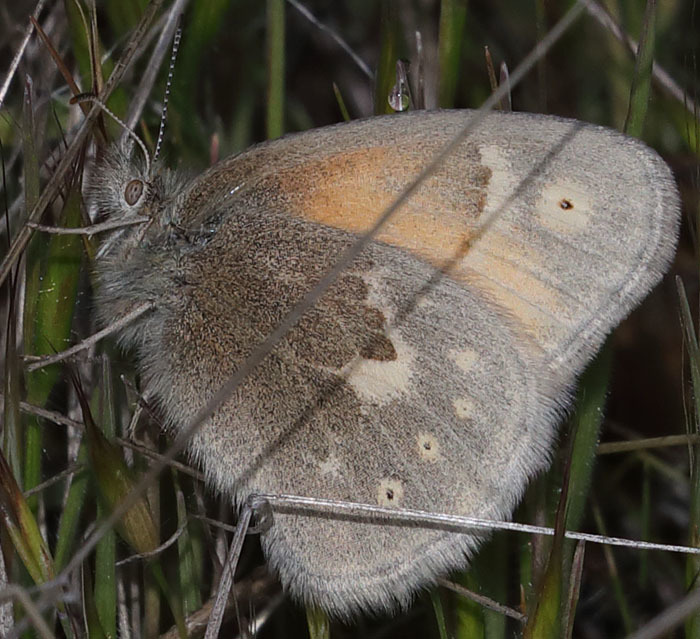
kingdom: Animalia
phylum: Arthropoda
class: Insecta
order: Lepidoptera
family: Nymphalidae
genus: Coenonympha
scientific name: Coenonympha california
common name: Common ringlet
